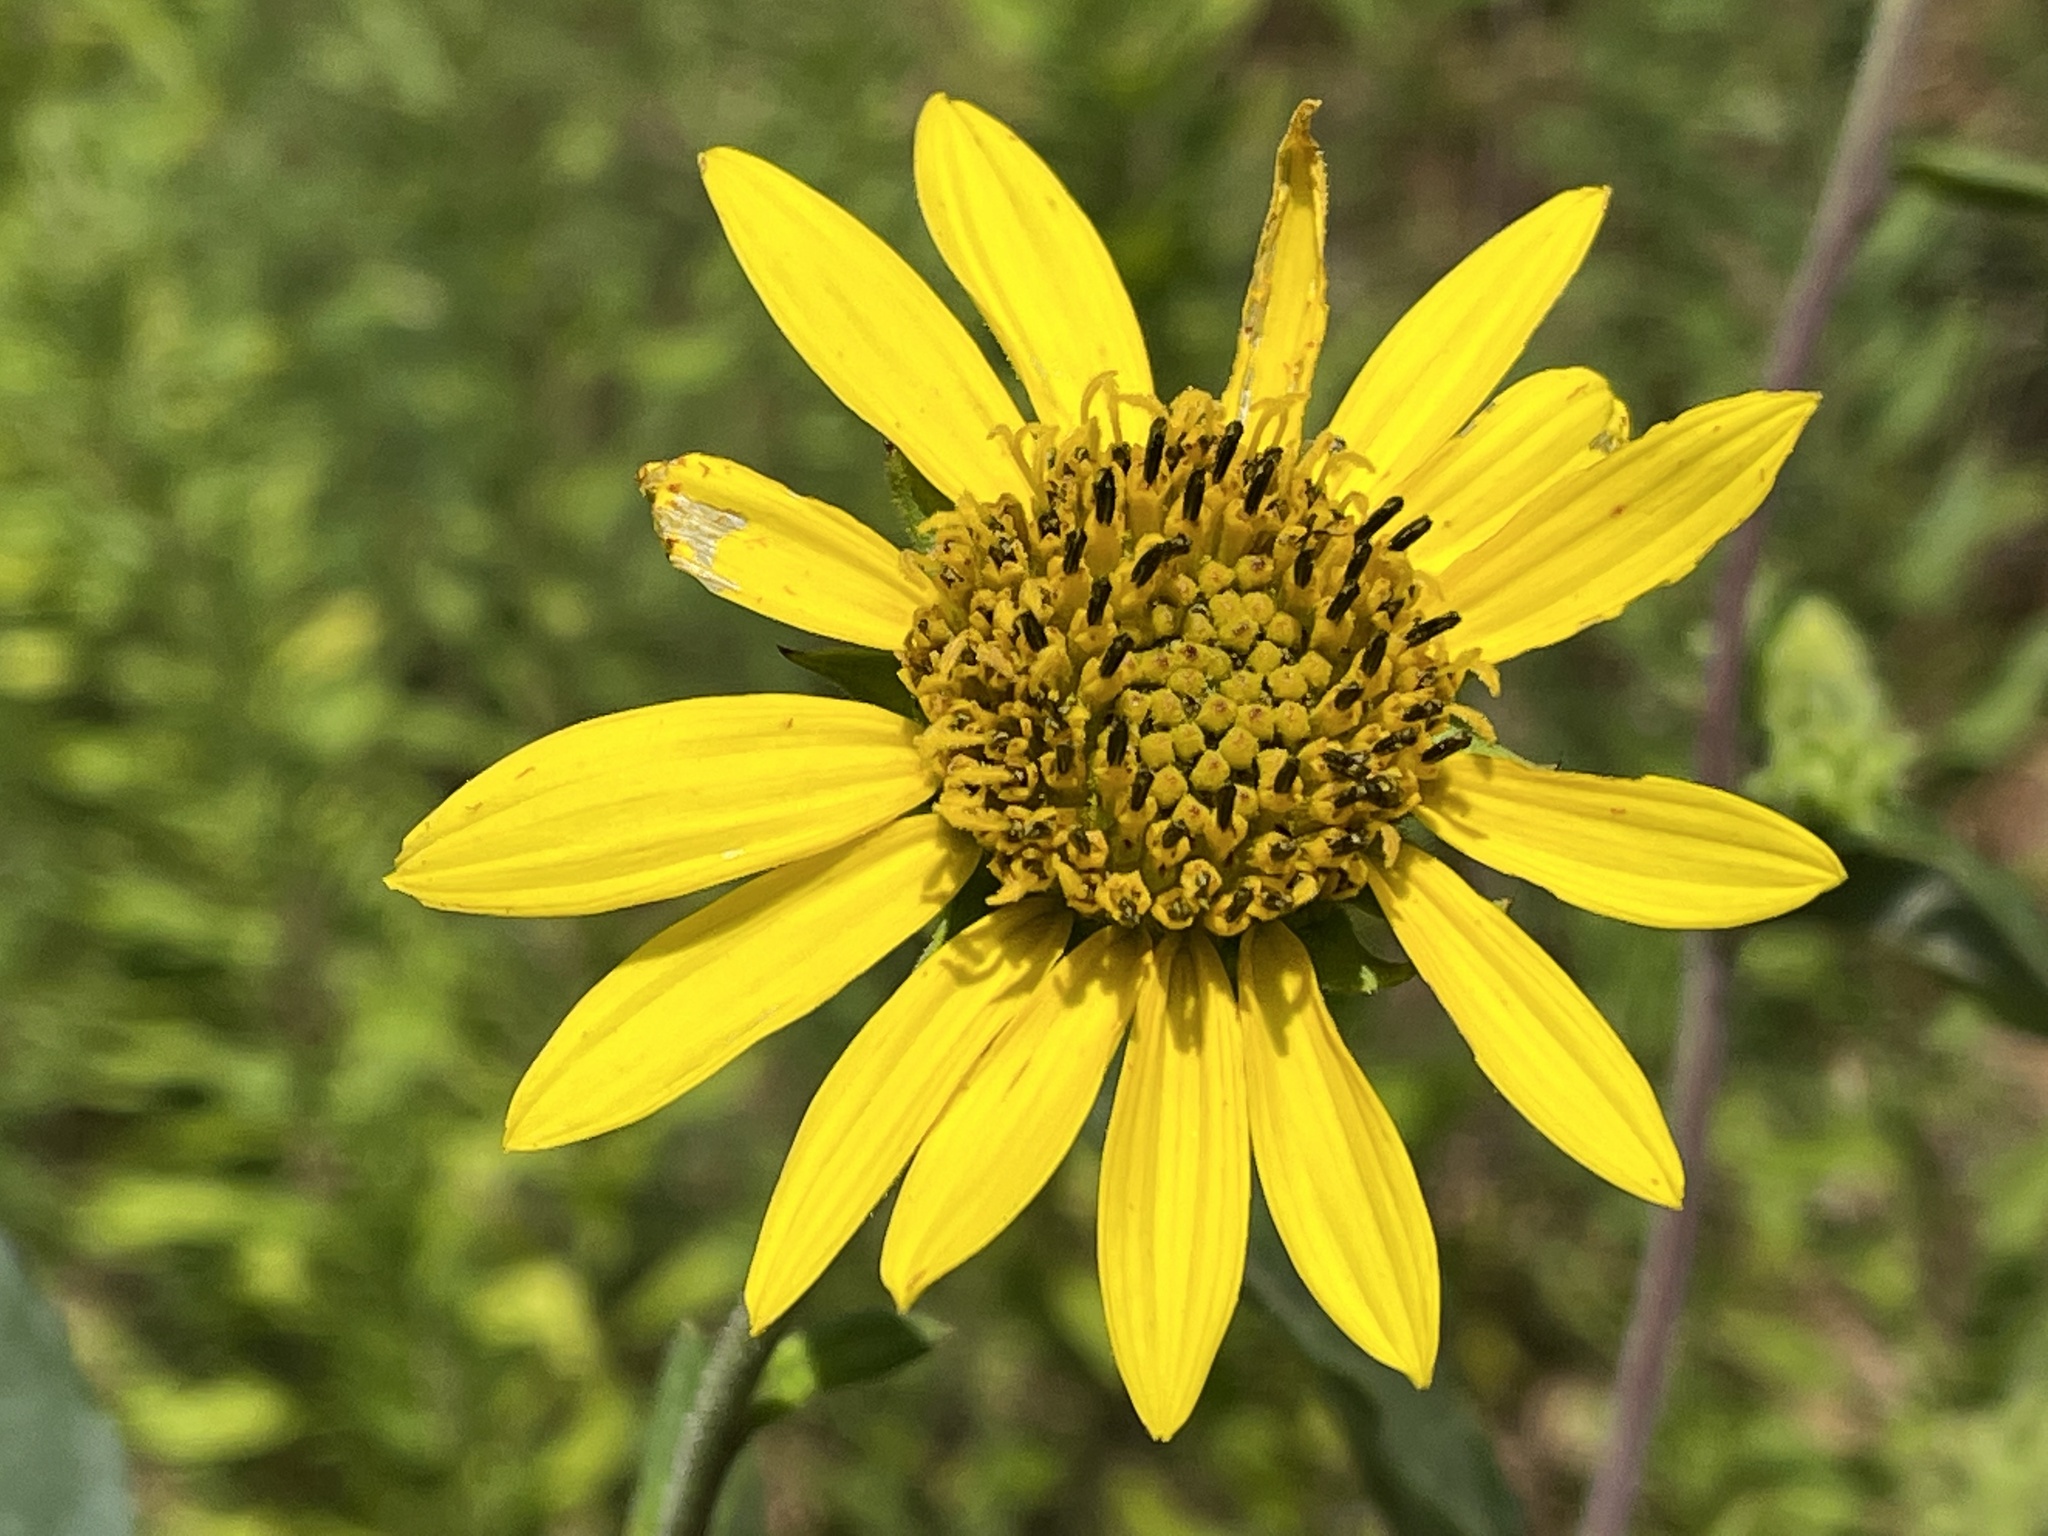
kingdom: Plantae
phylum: Tracheophyta
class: Magnoliopsida
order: Asterales
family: Asteraceae
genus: Helianthus
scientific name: Helianthus resinosus
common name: Resin-dot sunflower
